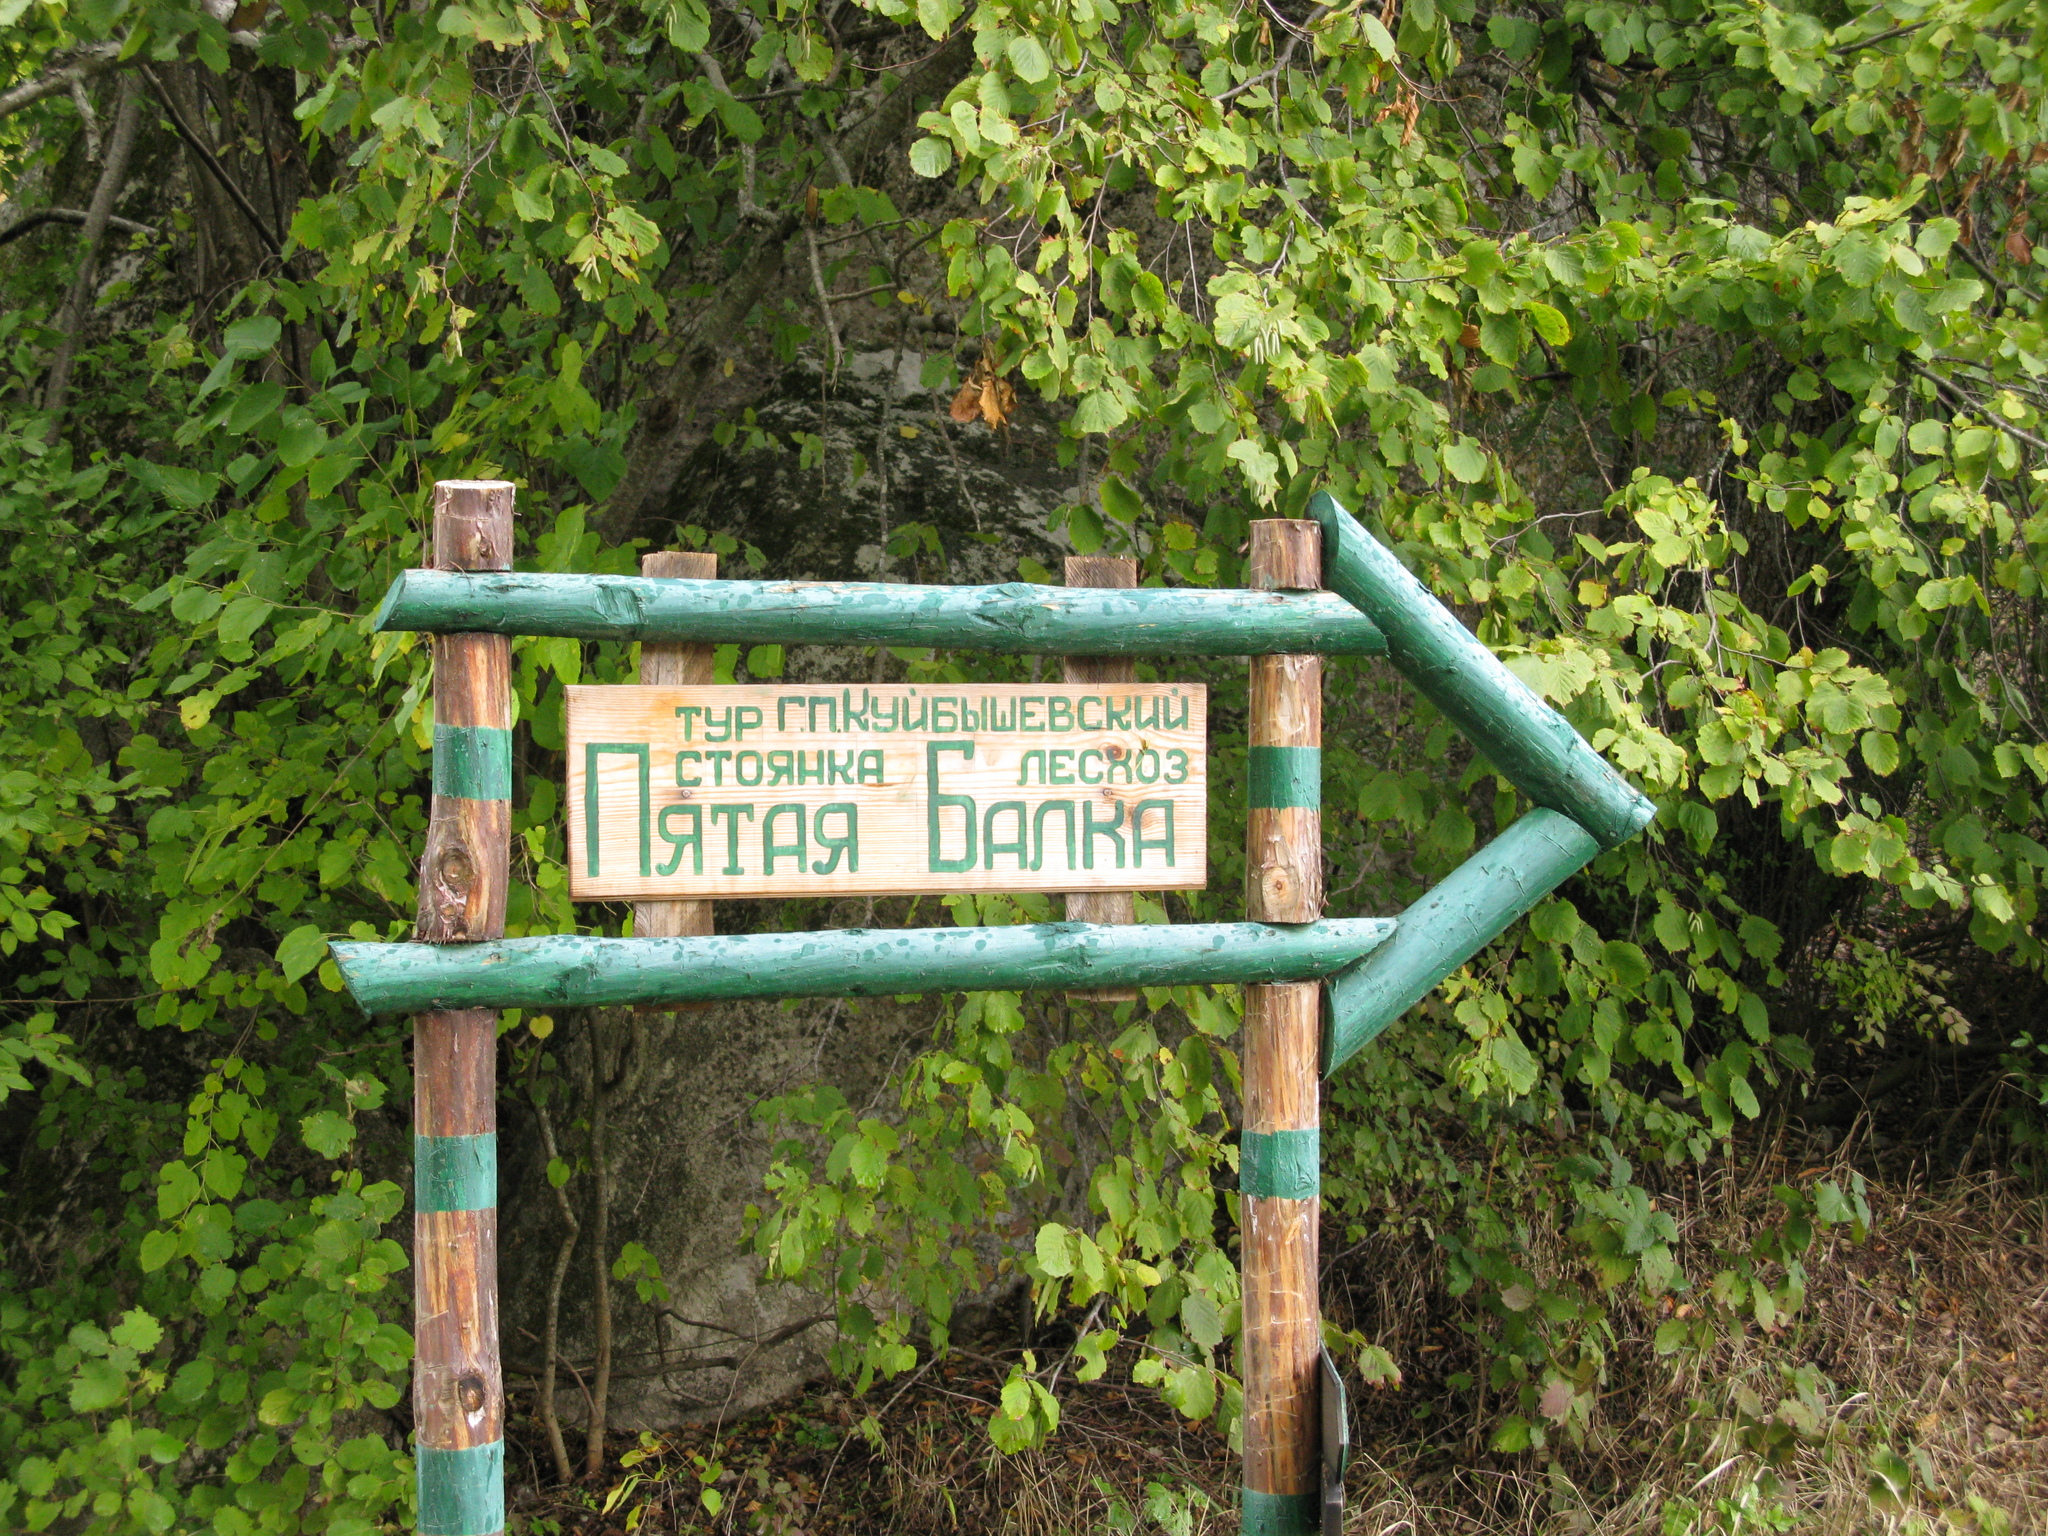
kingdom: Plantae
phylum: Tracheophyta
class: Magnoliopsida
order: Fagales
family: Betulaceae
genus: Corylus
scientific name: Corylus avellana
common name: European hazel
